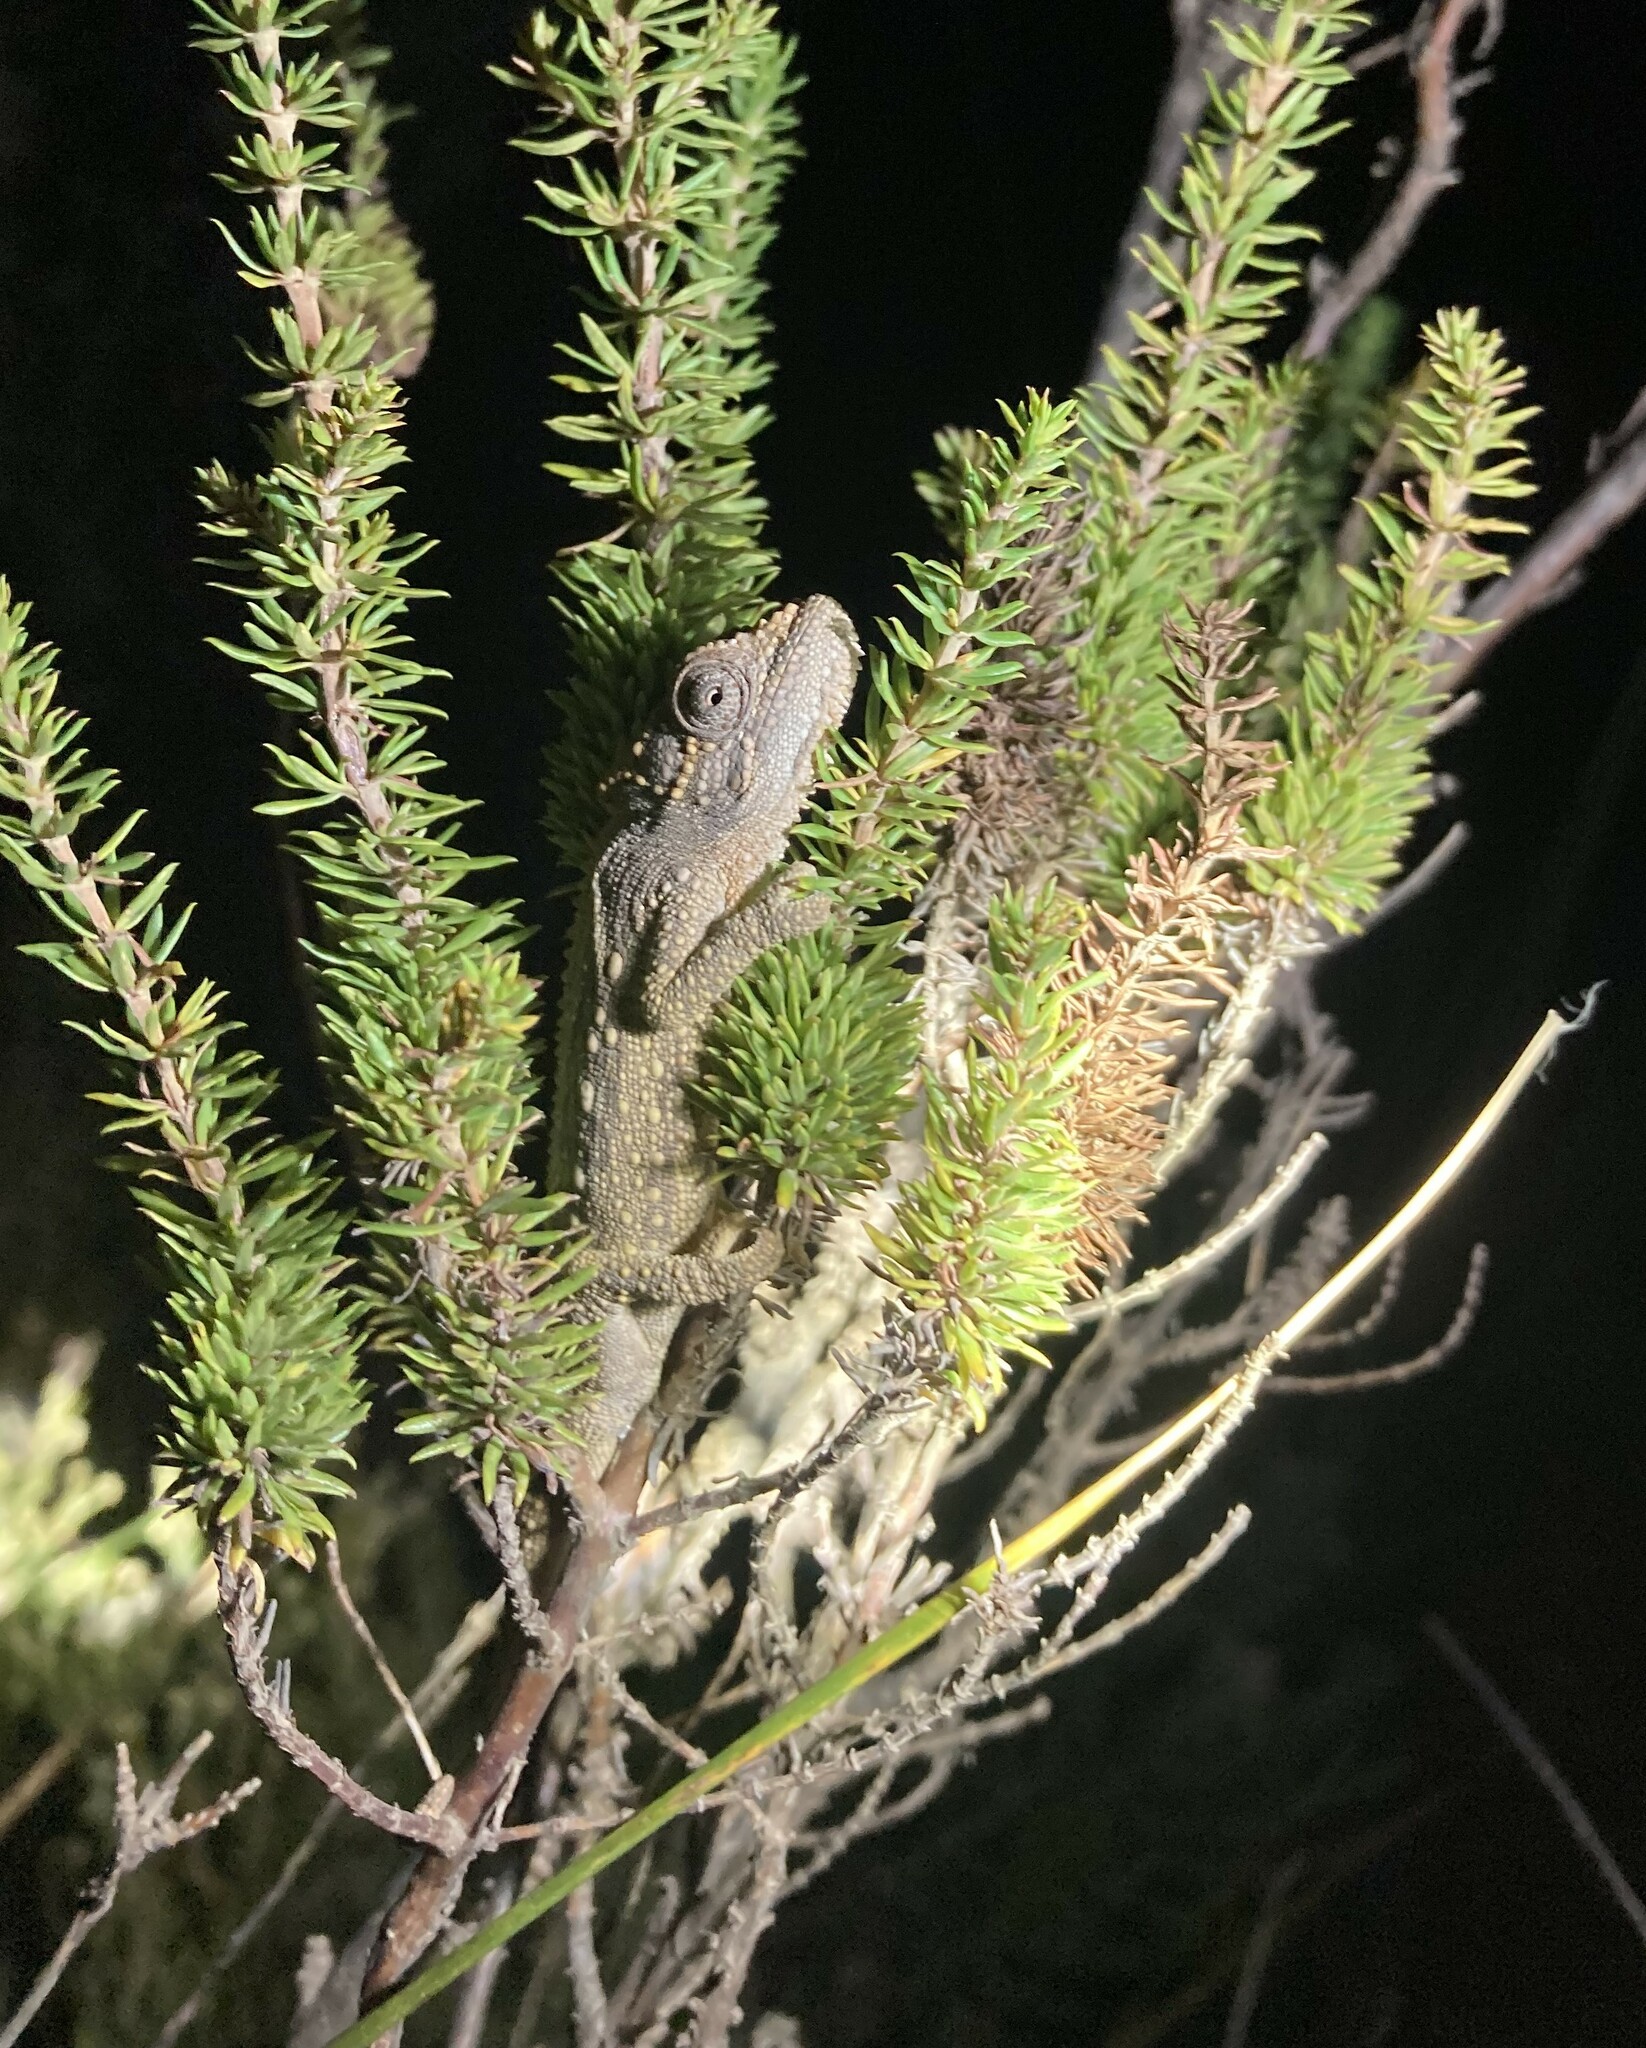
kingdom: Animalia
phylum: Chordata
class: Squamata
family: Chamaeleonidae
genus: Bradypodion
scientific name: Bradypodion atromontanum
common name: Swartberg dwarf chameleon
